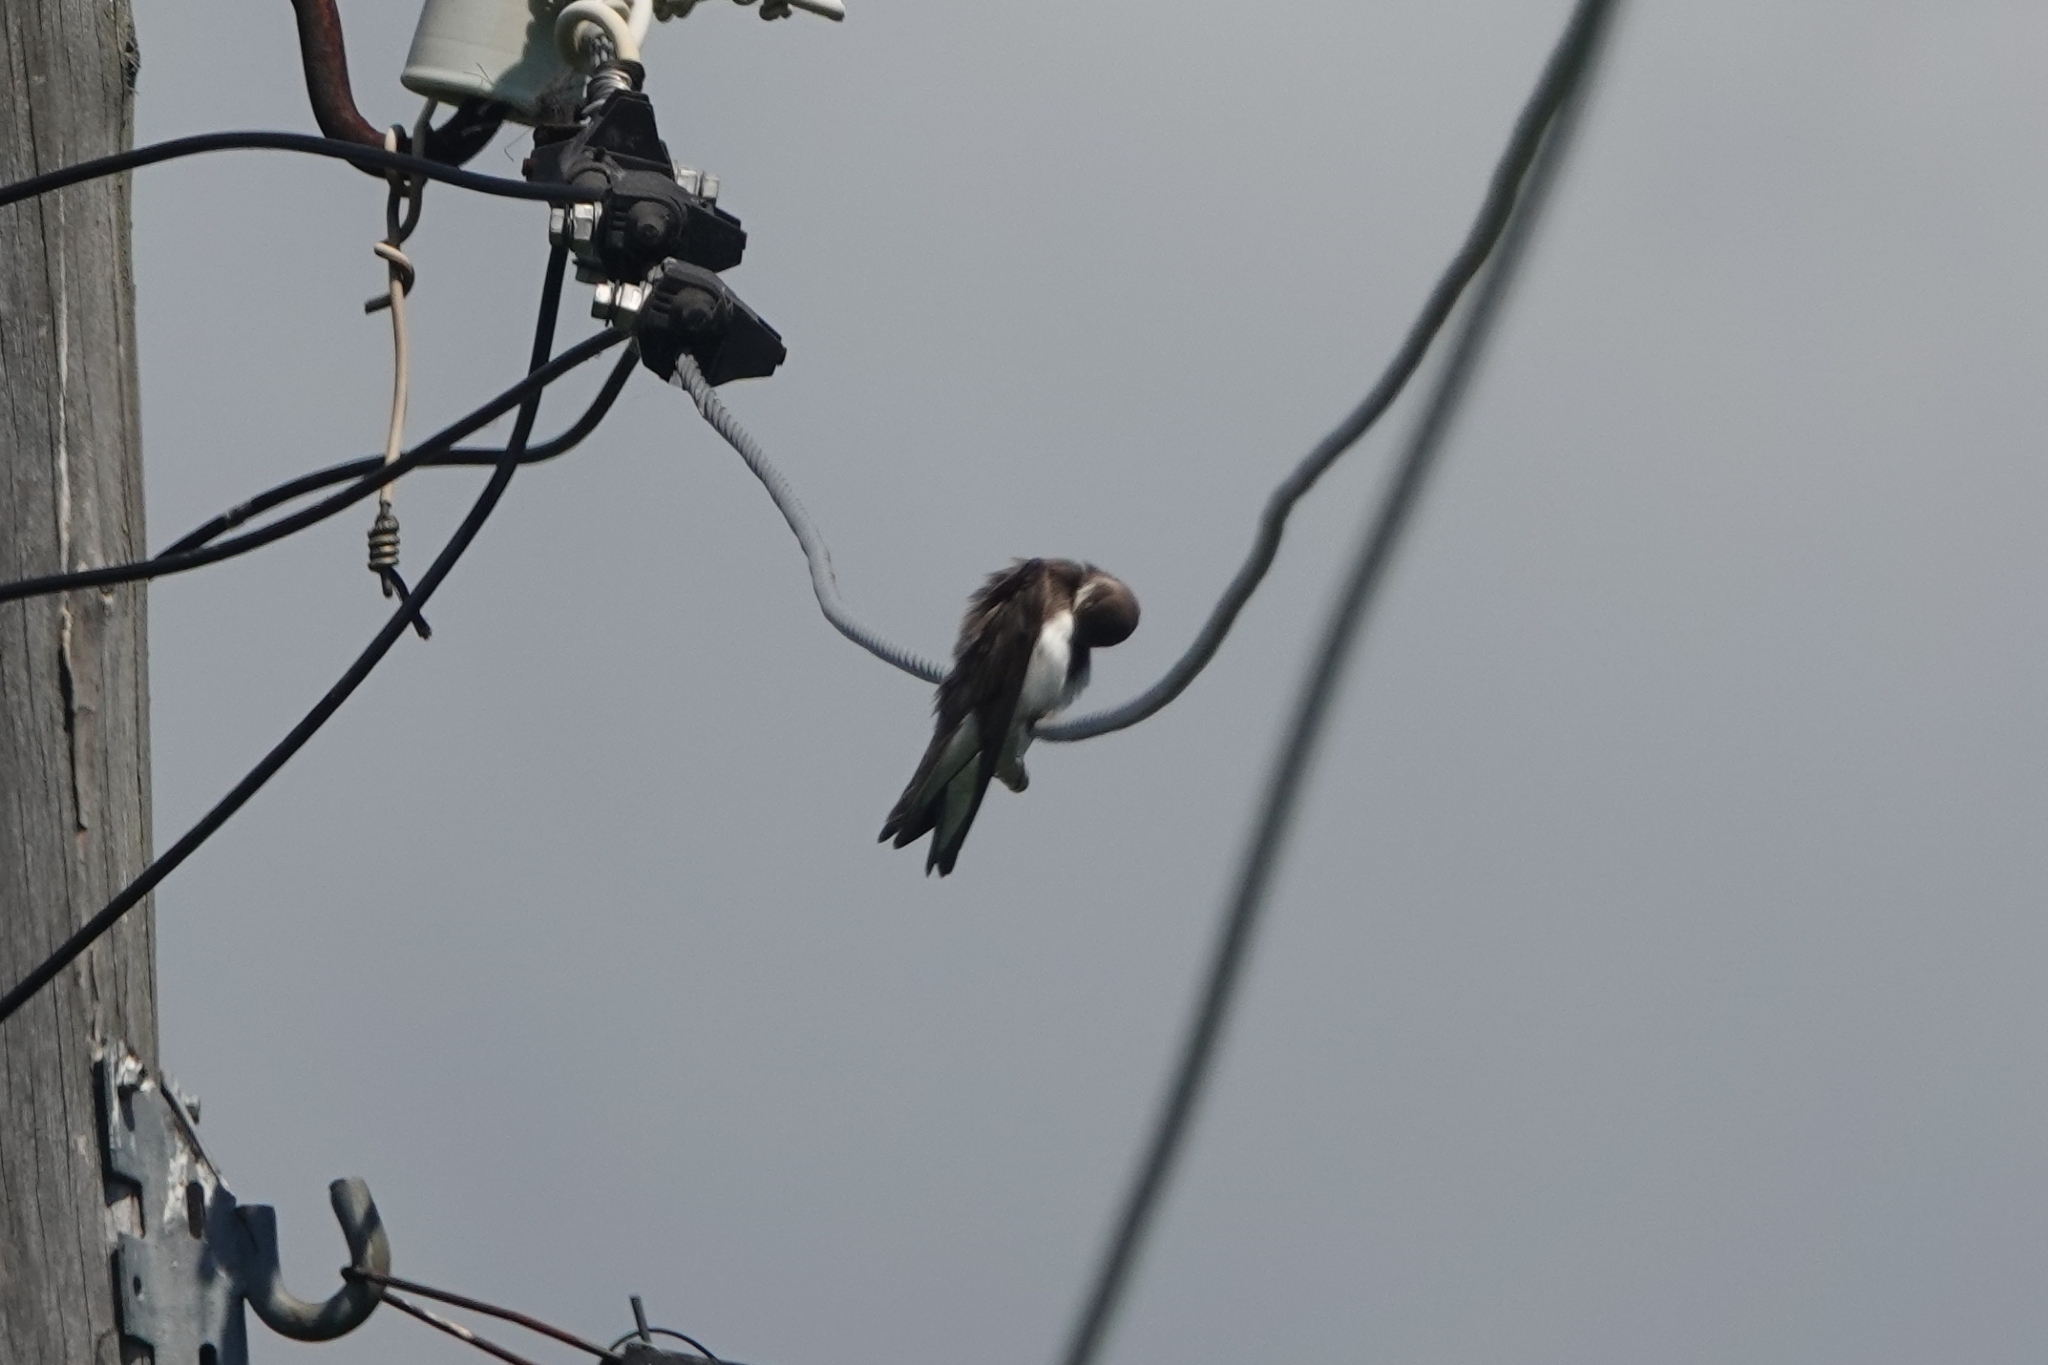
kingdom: Animalia
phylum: Chordata
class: Aves
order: Passeriformes
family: Hirundinidae
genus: Riparia
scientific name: Riparia riparia
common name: Sand martin
